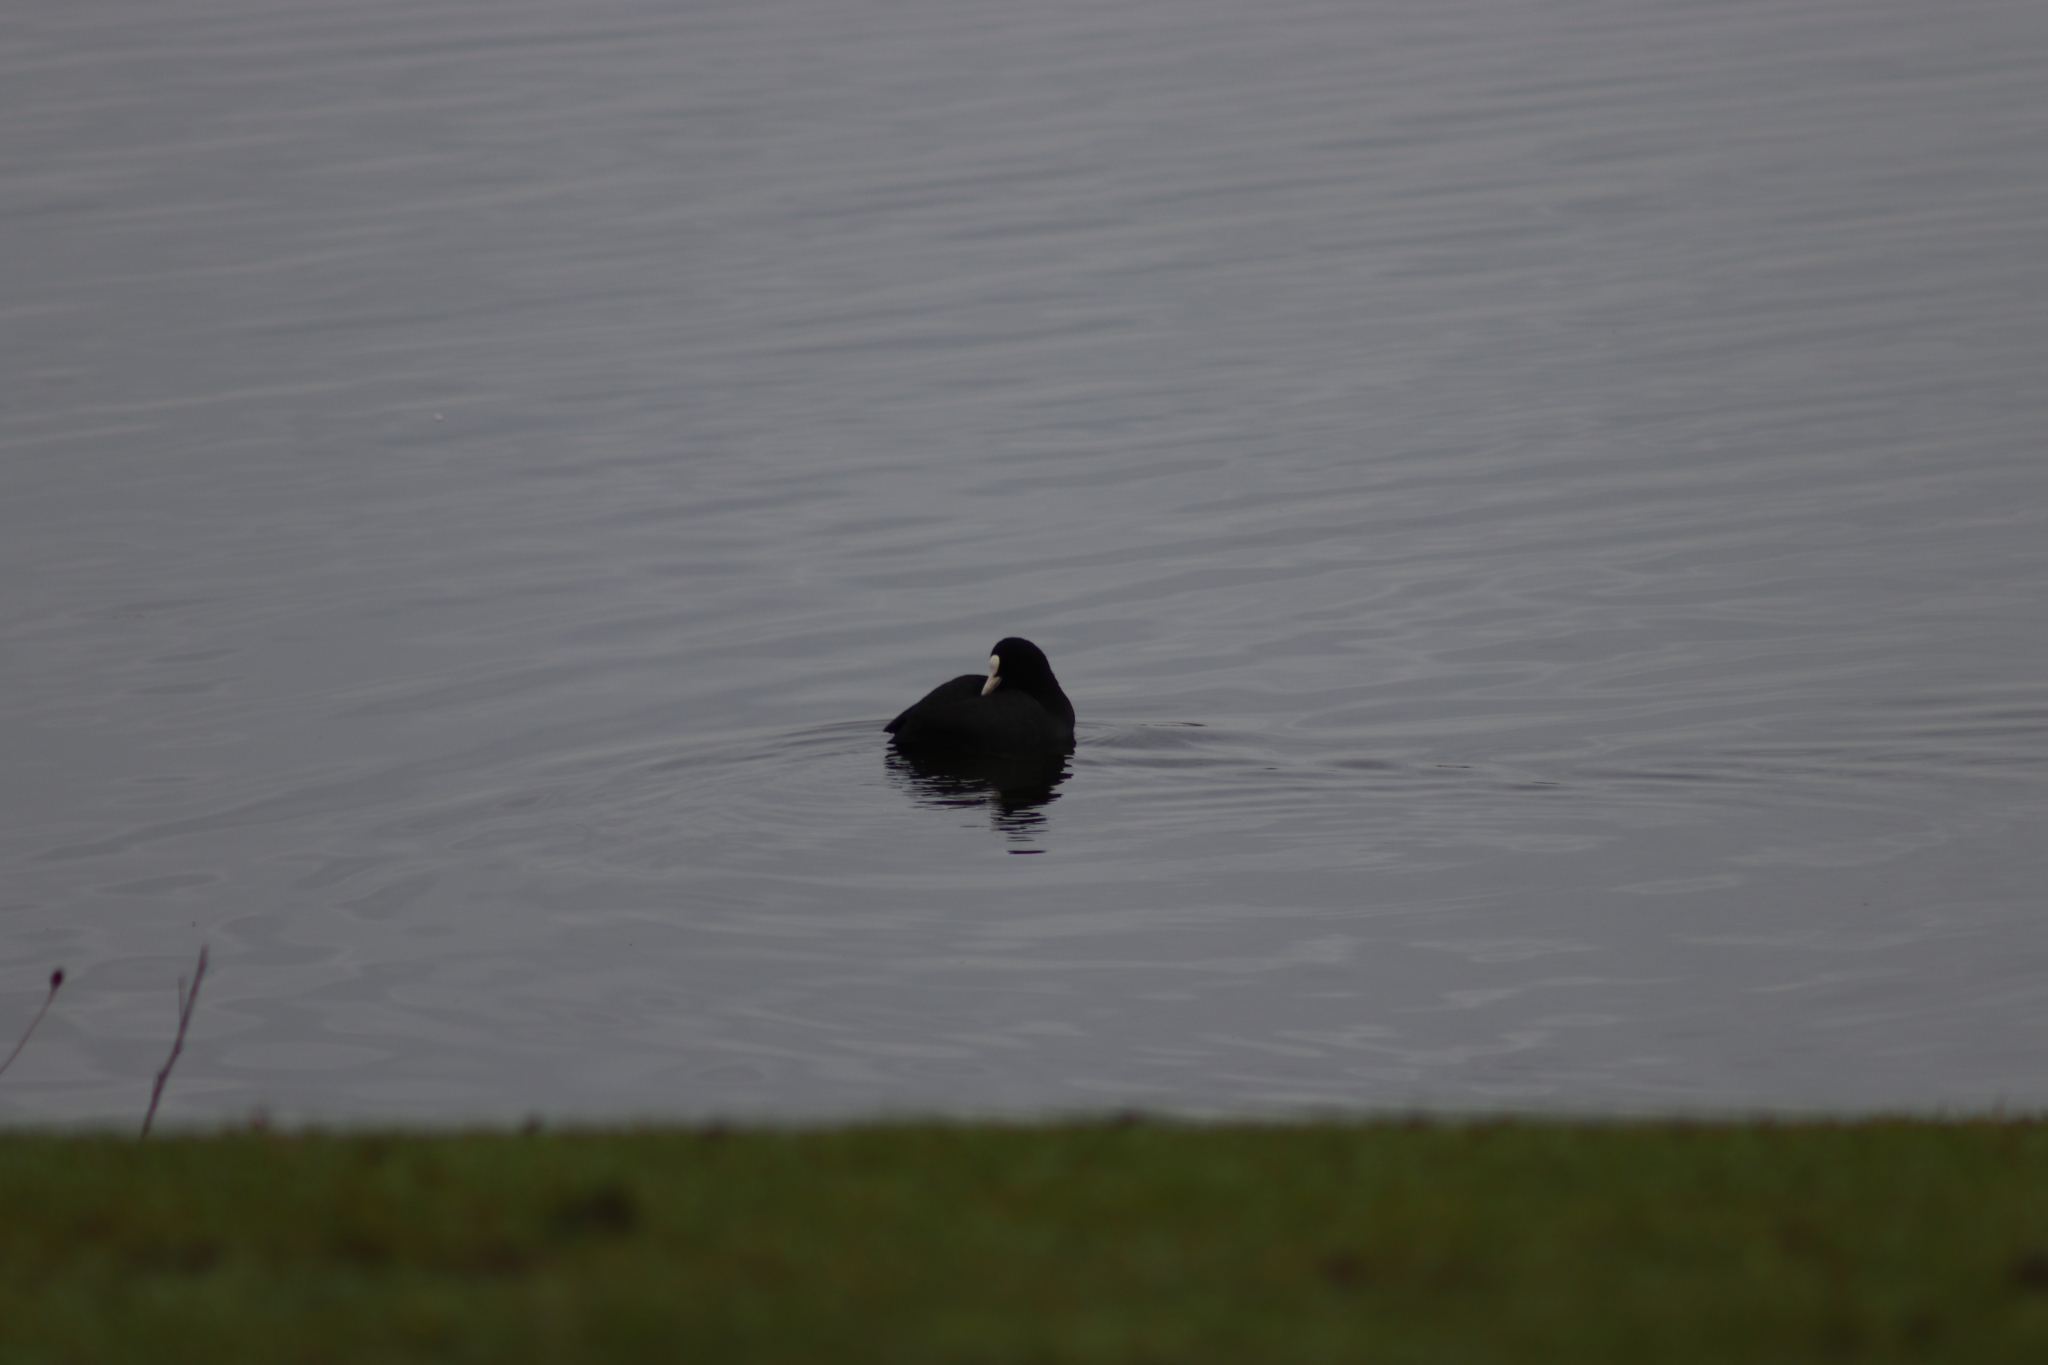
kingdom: Animalia
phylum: Chordata
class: Aves
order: Gruiformes
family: Rallidae
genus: Fulica
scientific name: Fulica atra
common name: Eurasian coot
